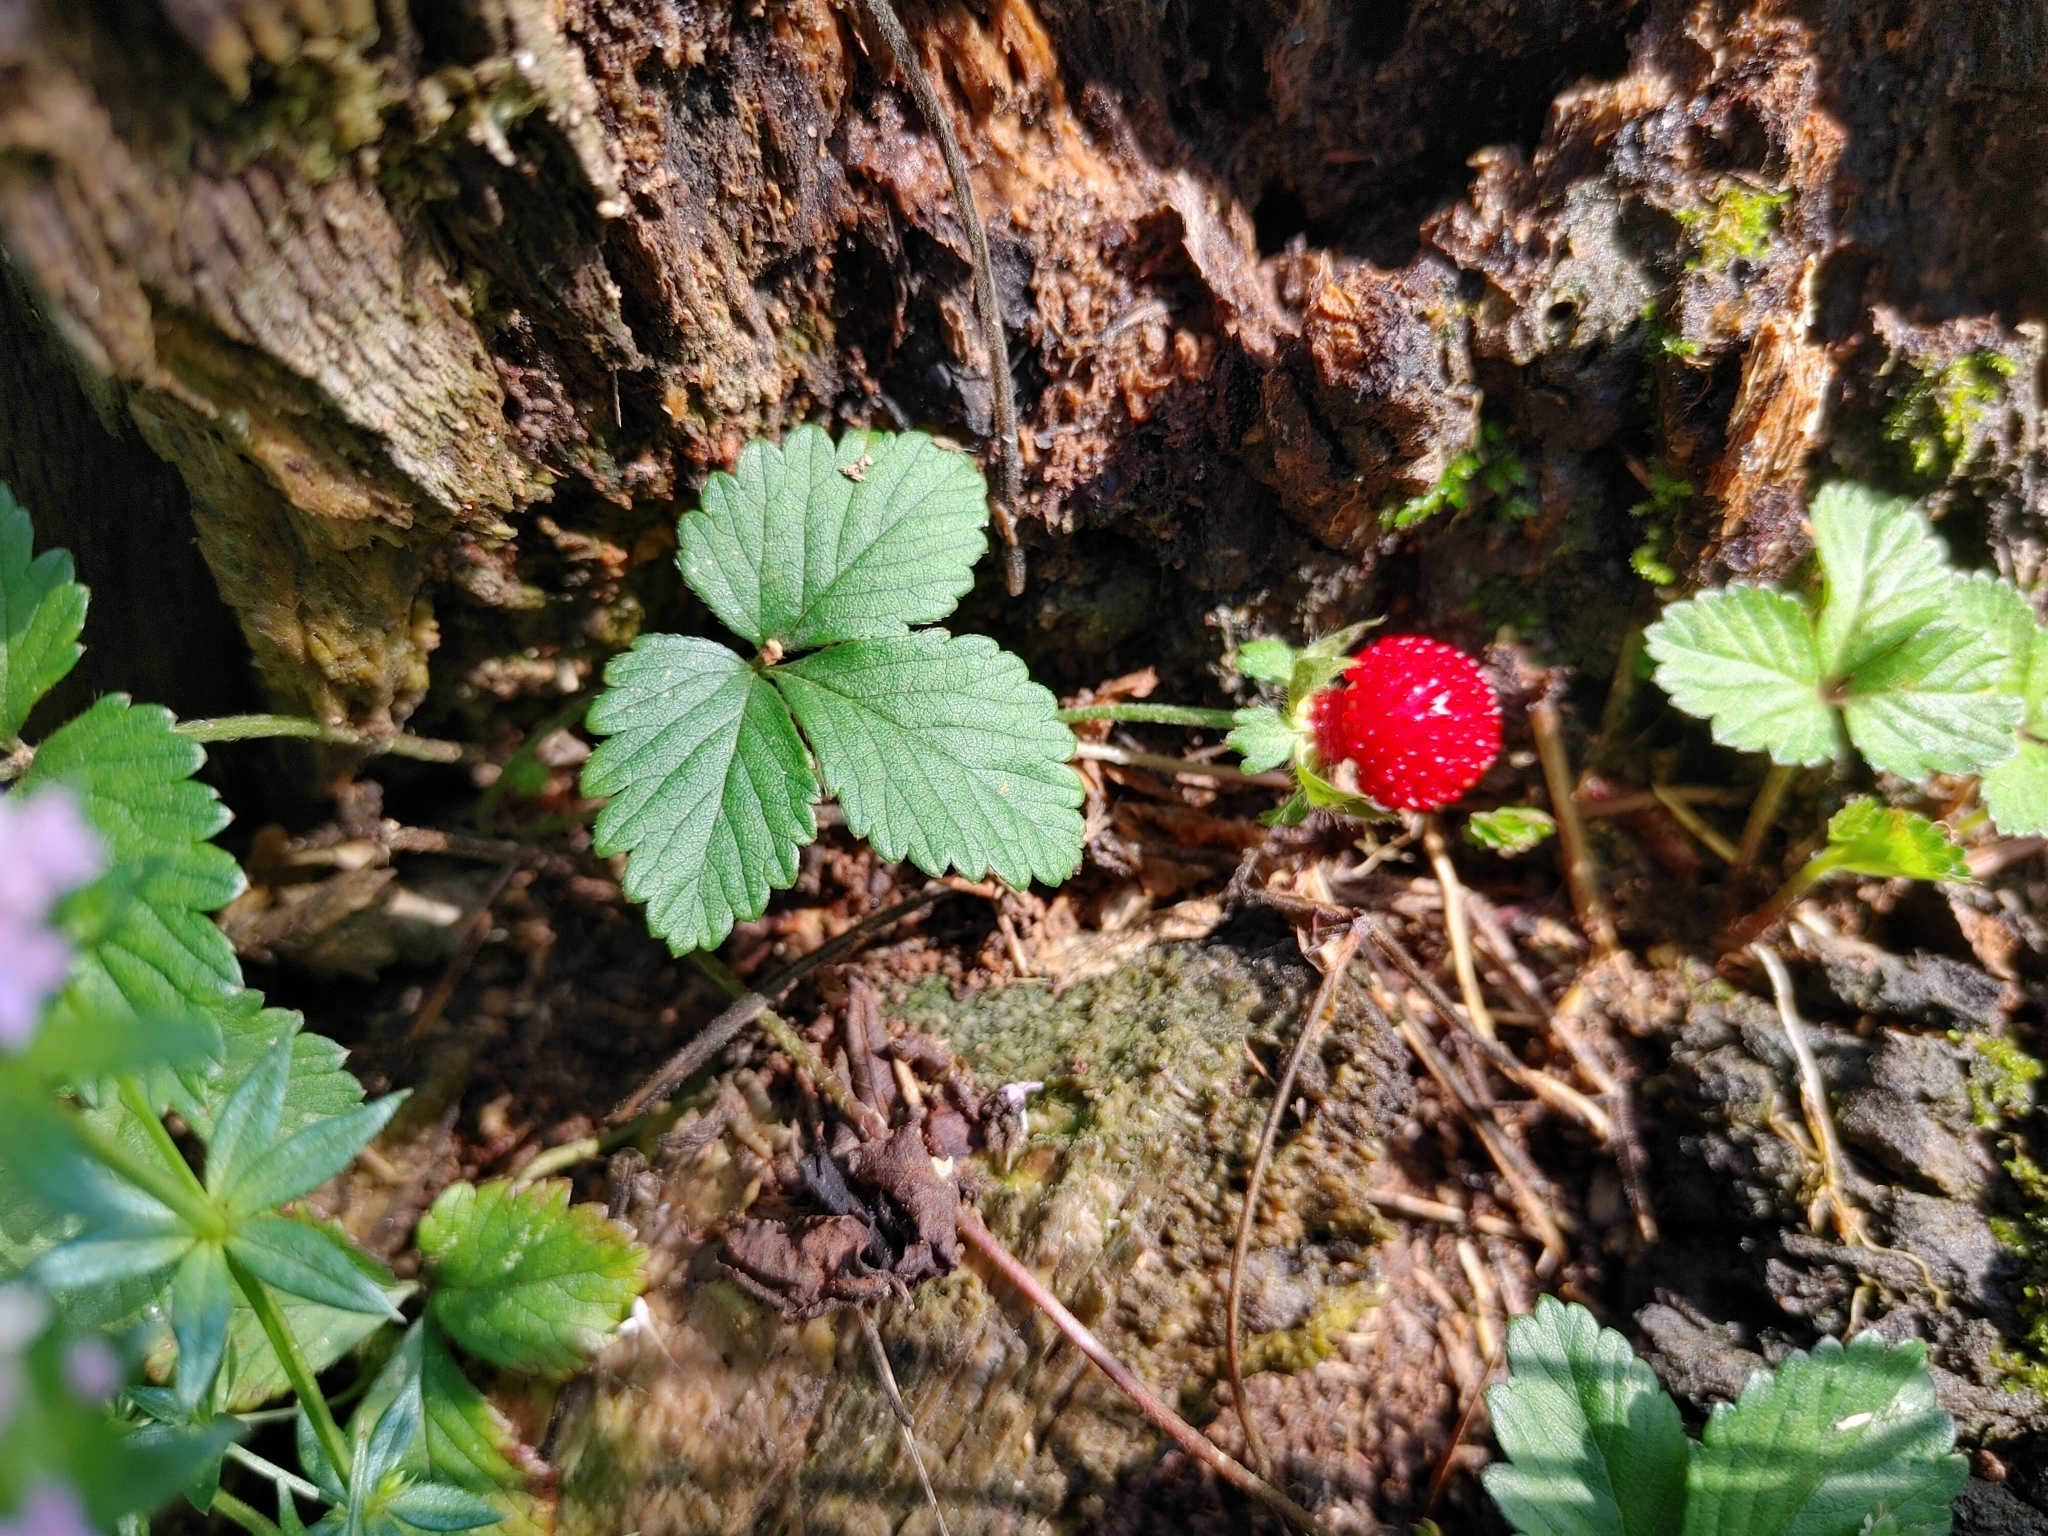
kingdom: Plantae
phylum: Tracheophyta
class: Magnoliopsida
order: Rosales
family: Rosaceae
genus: Potentilla
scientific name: Potentilla indica
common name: Yellow-flowered strawberry
